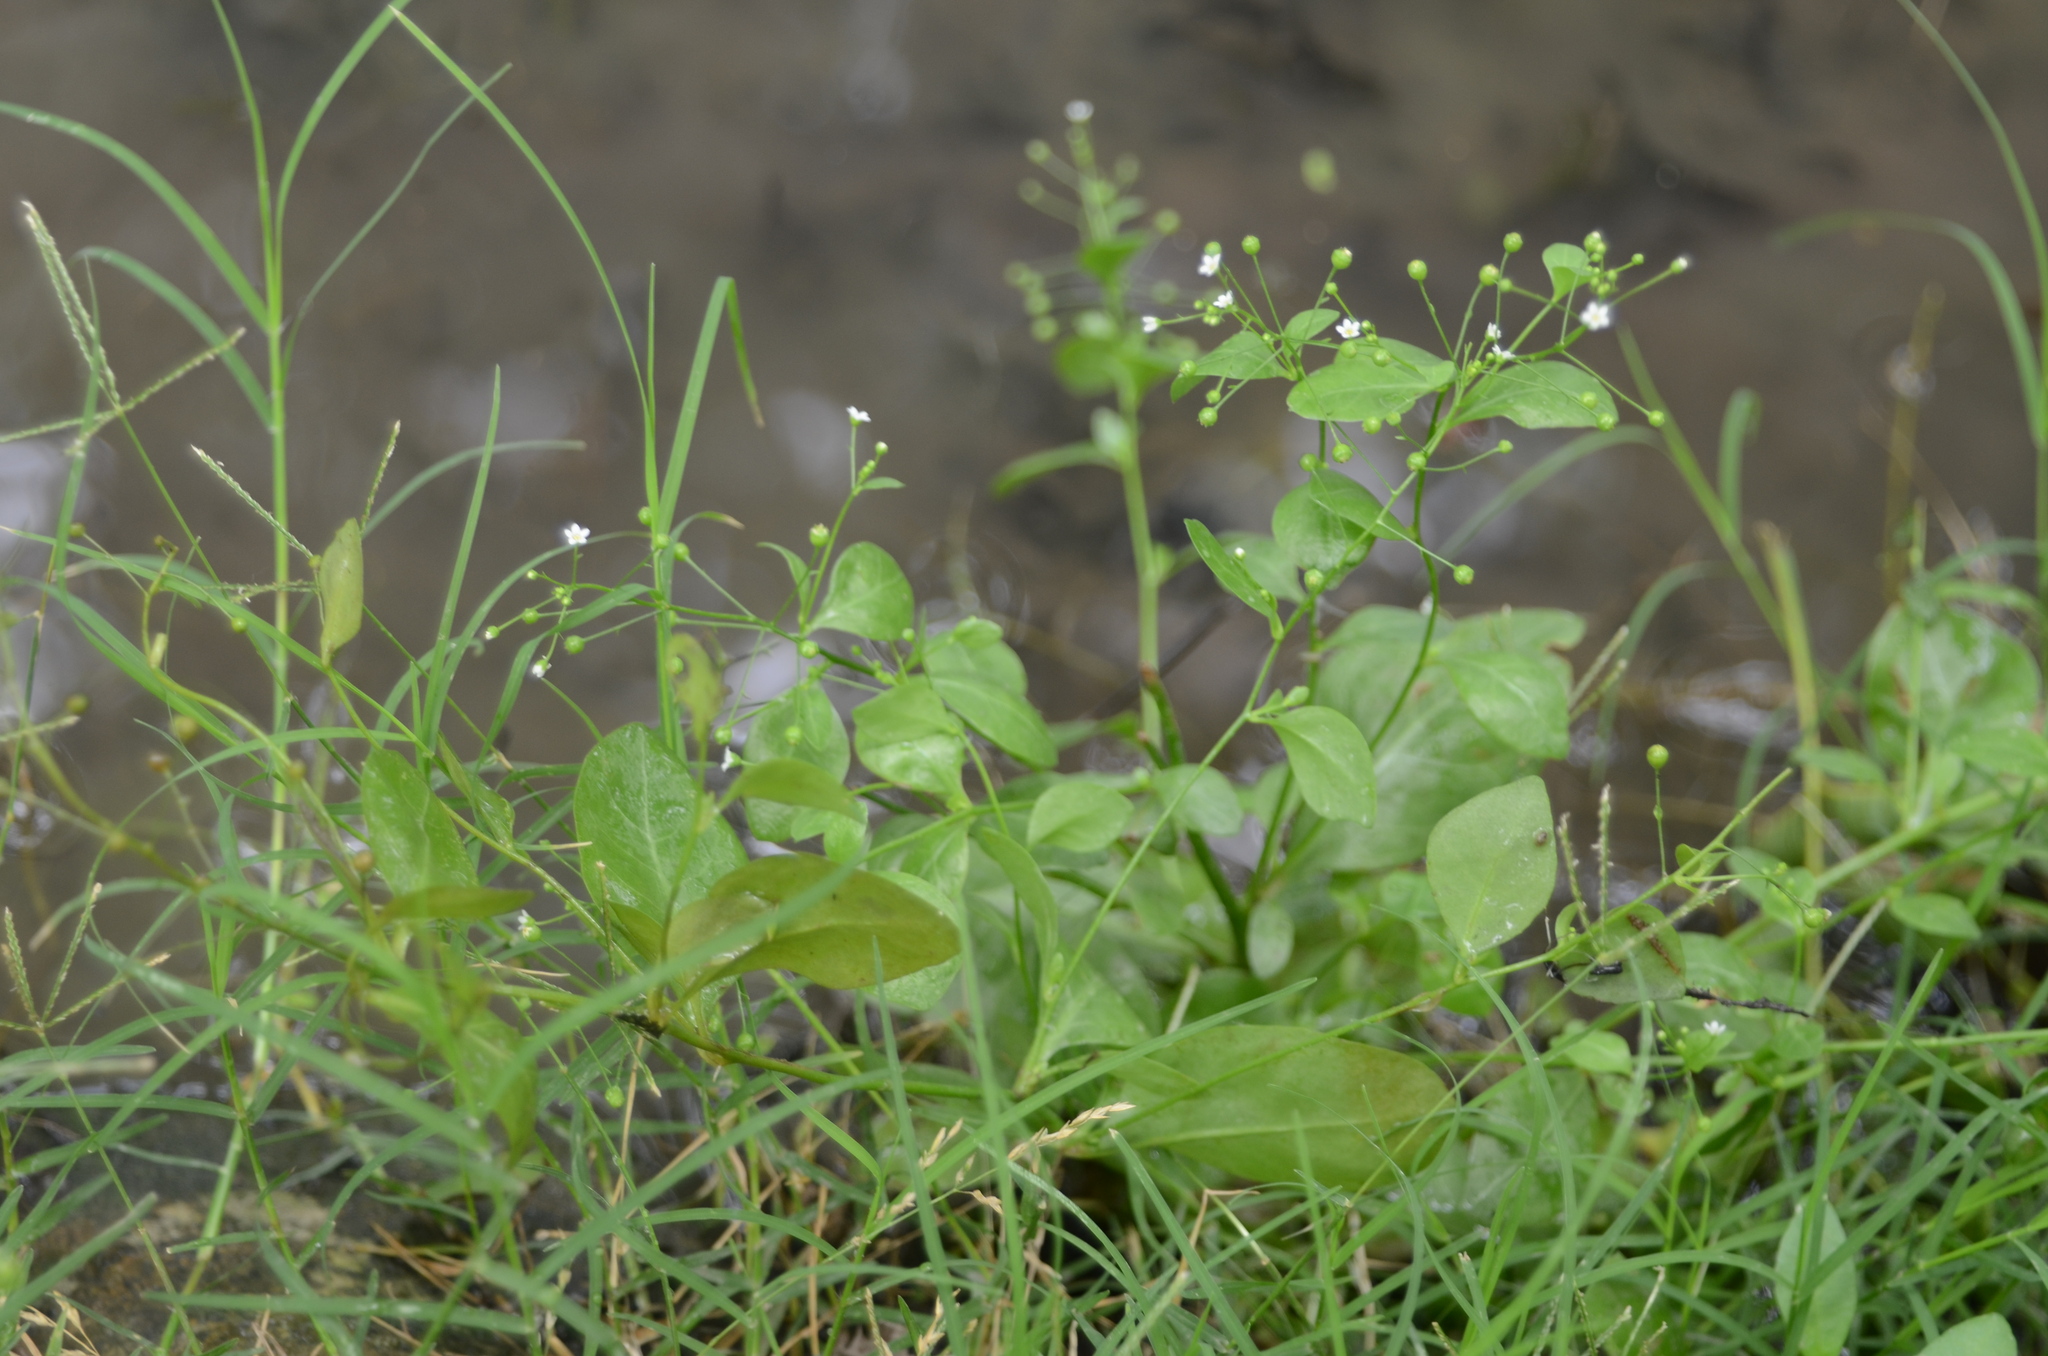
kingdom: Plantae
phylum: Tracheophyta
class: Magnoliopsida
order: Ericales
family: Primulaceae
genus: Samolus
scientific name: Samolus parviflorus
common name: False water pimpernel
